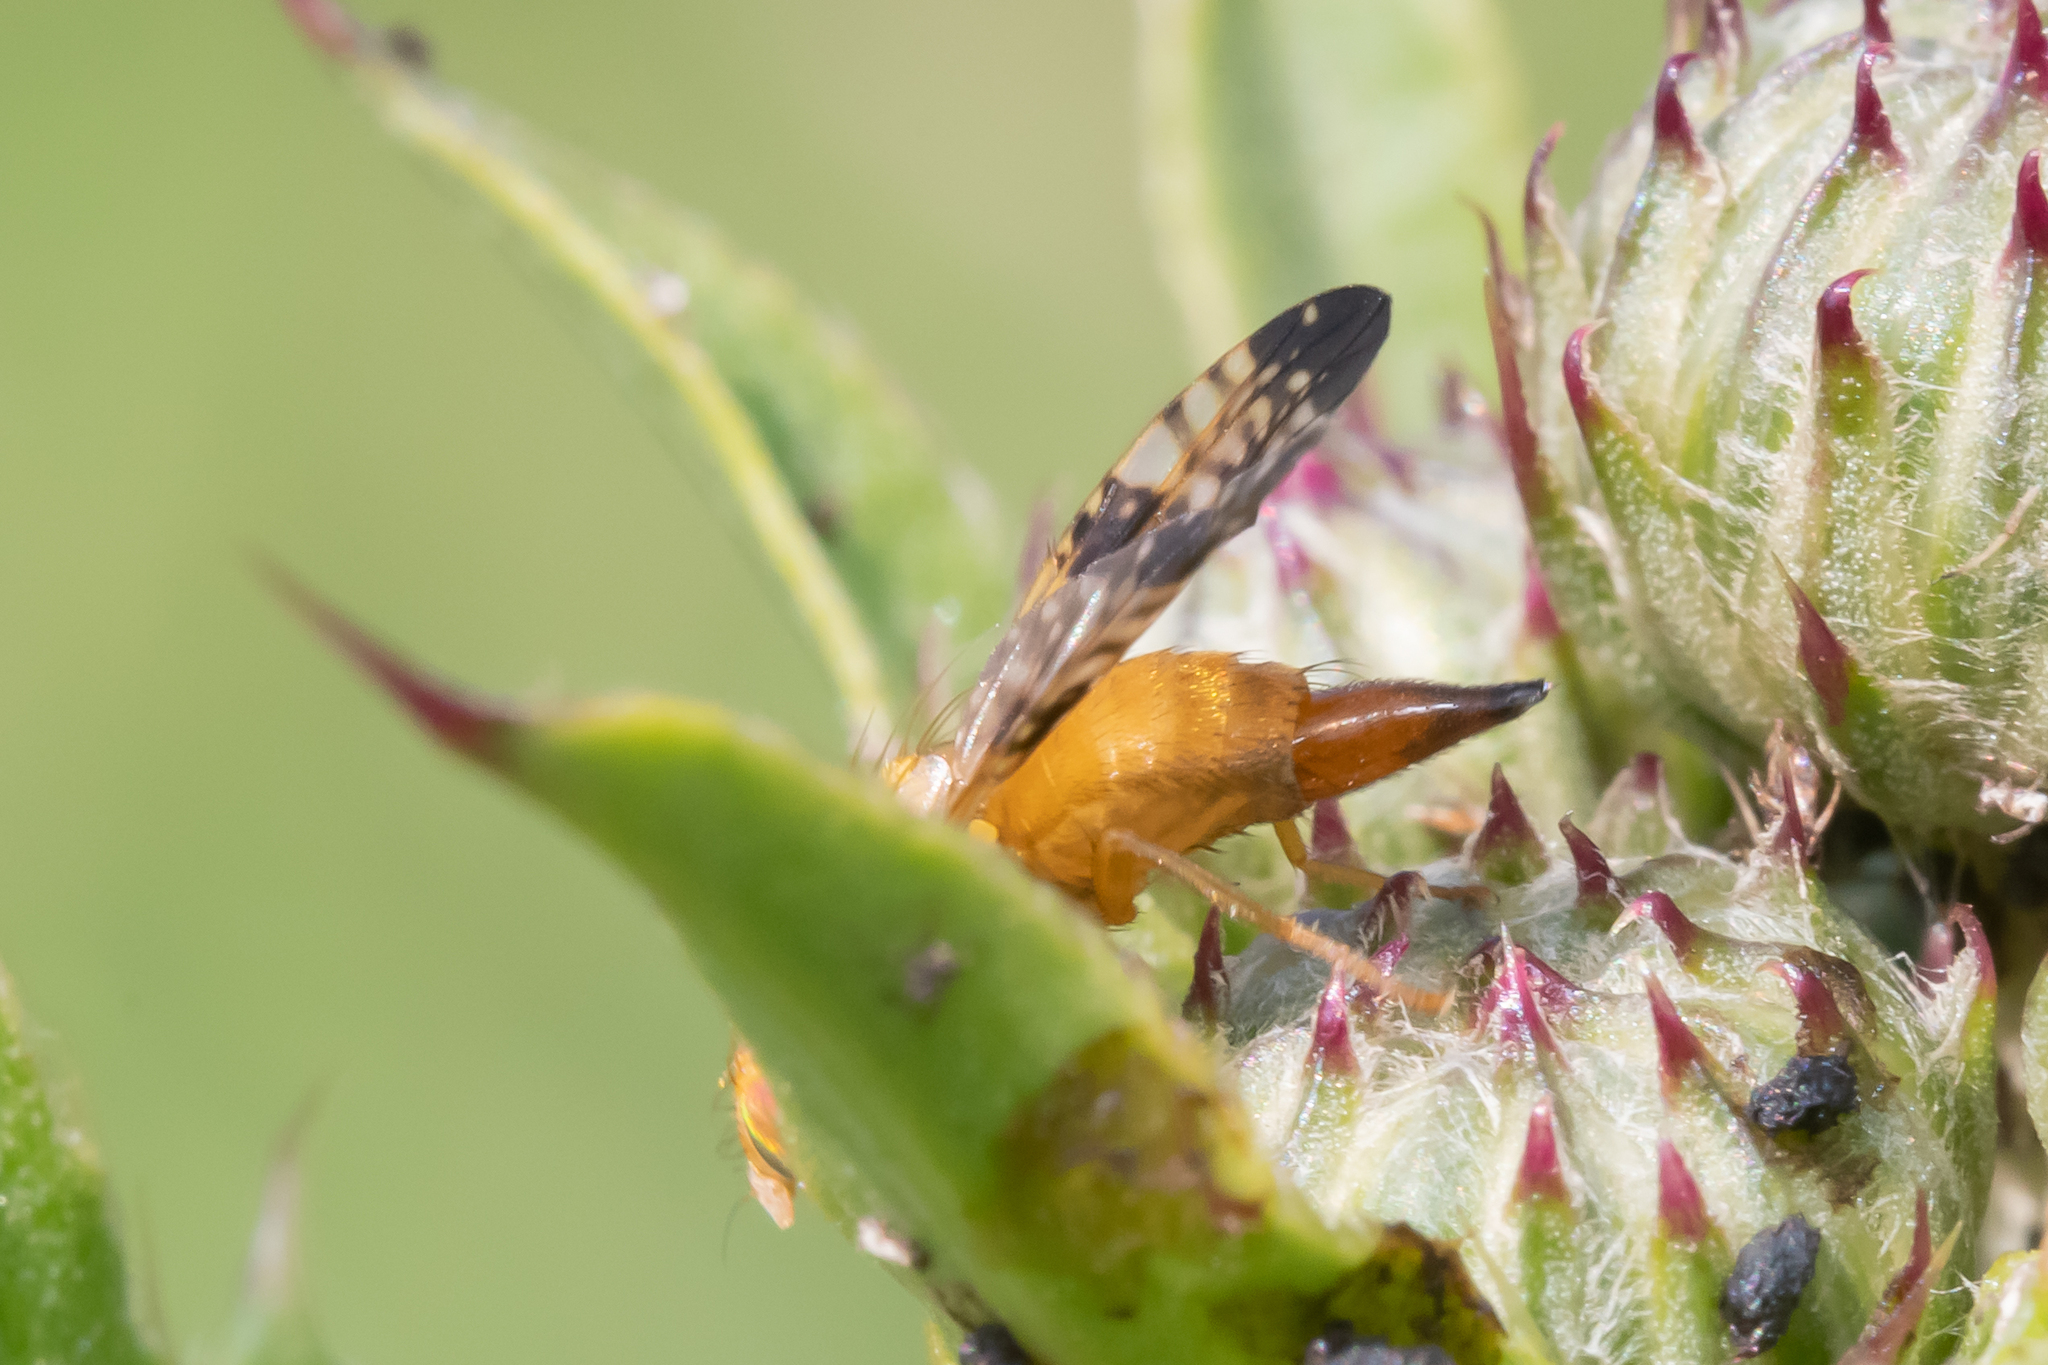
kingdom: Animalia
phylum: Arthropoda
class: Insecta
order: Diptera
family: Tephritidae
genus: Xyphosia
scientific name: Xyphosia miliaria
